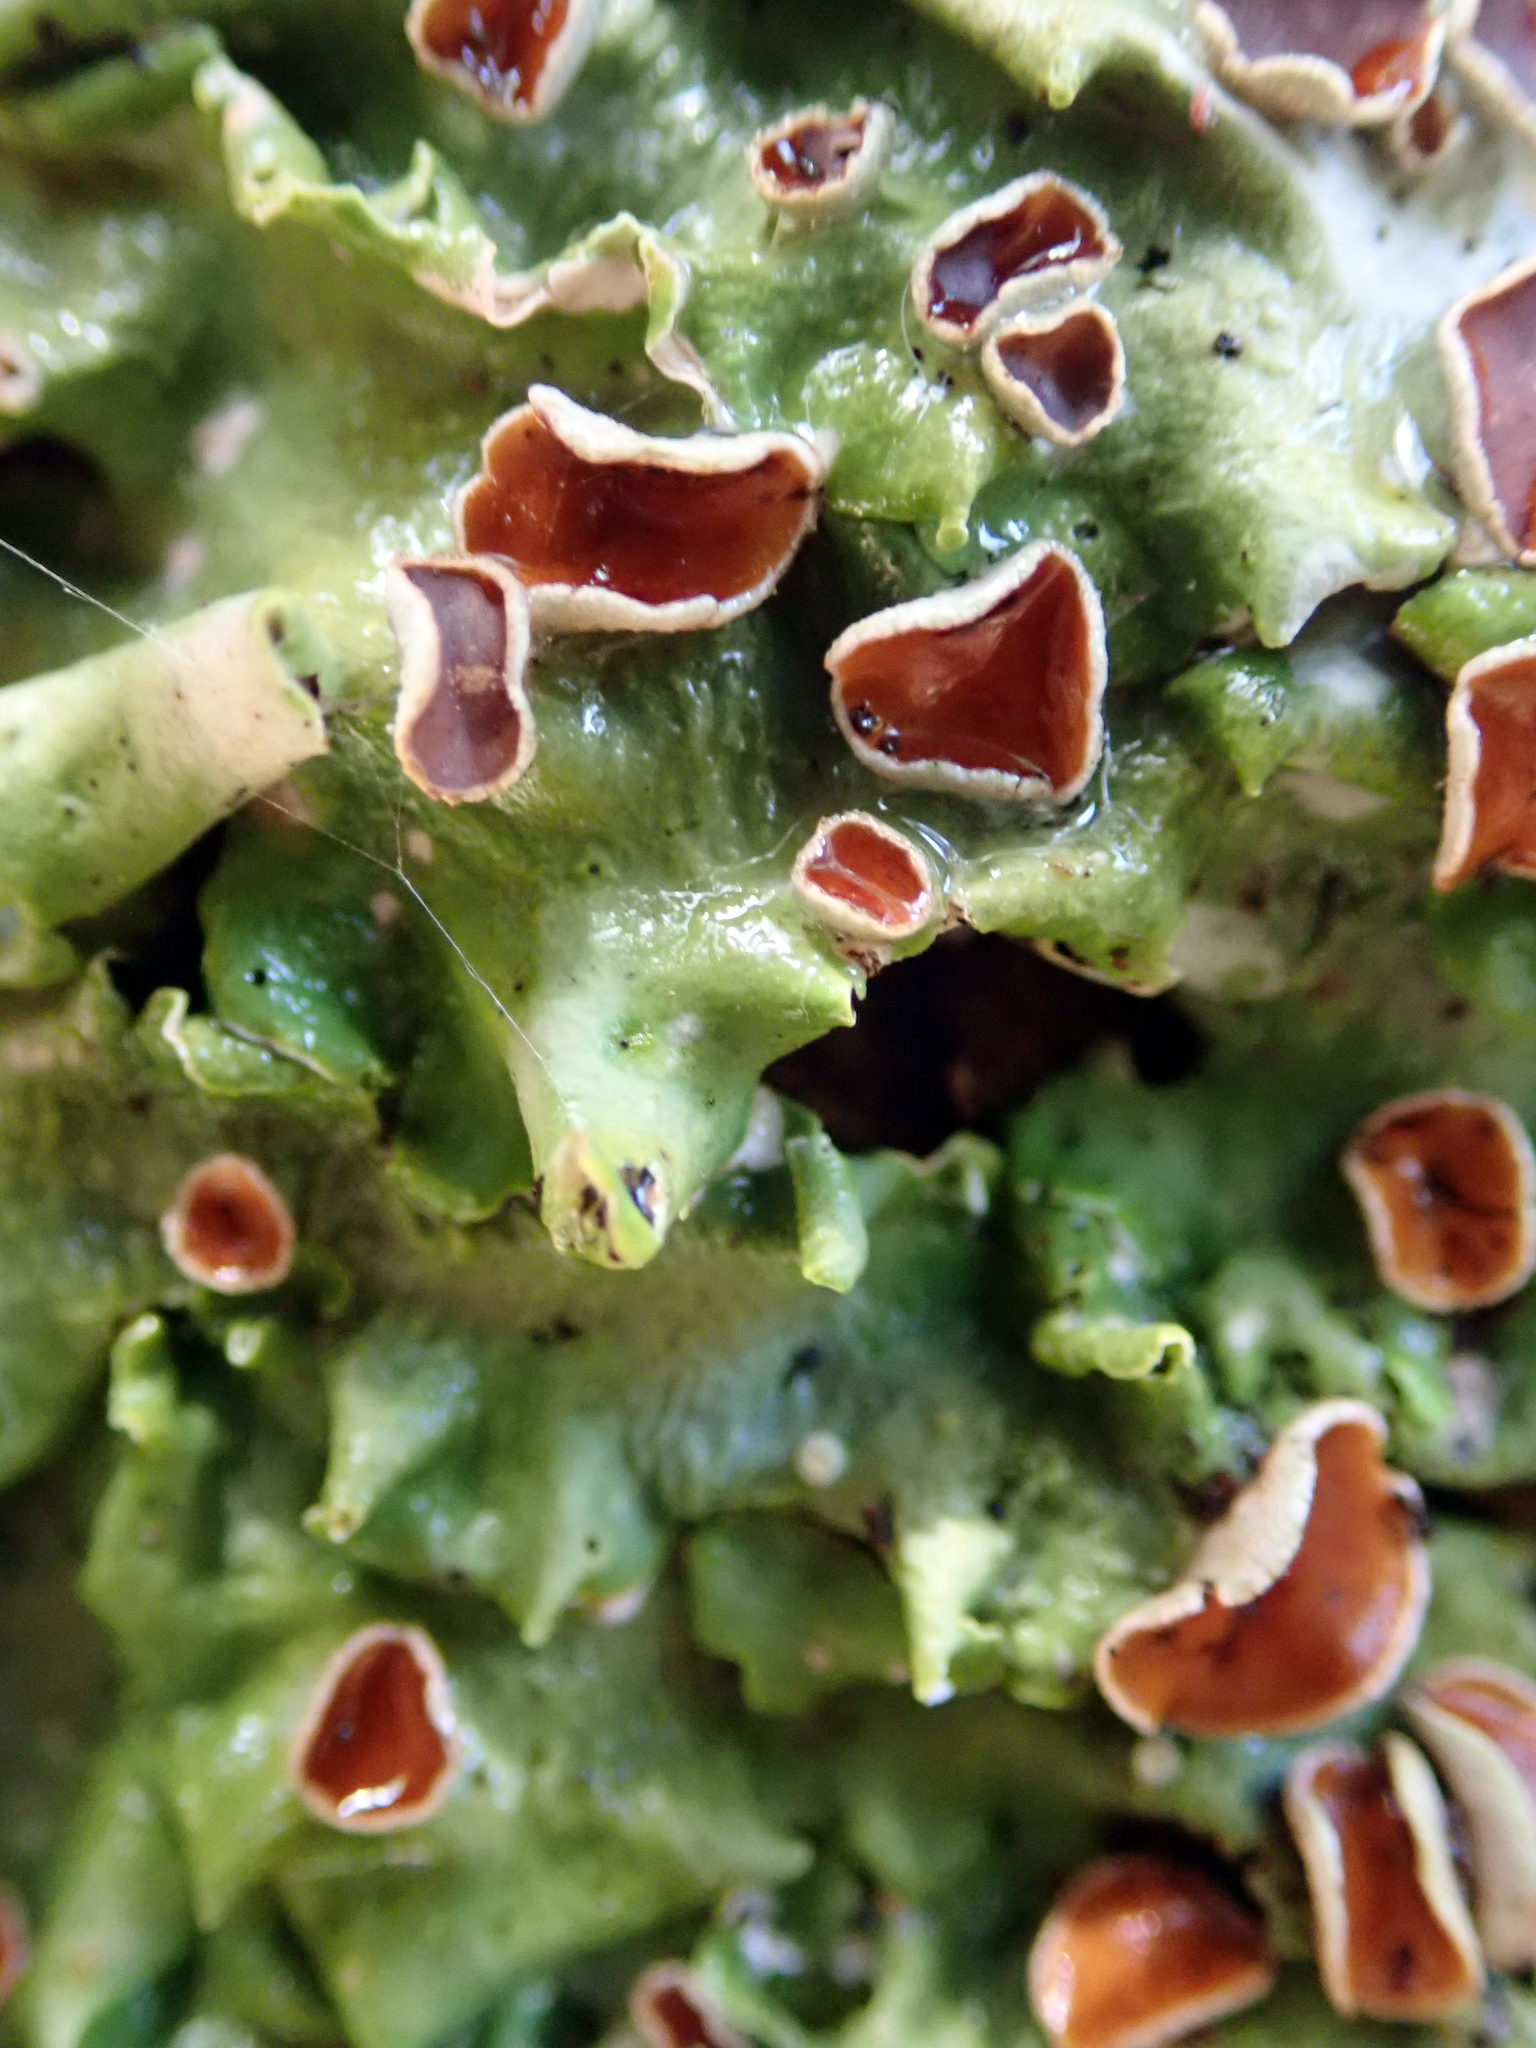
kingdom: Fungi
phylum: Ascomycota
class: Lecanoromycetes
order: Peltigerales
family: Lobariaceae
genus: Lobaria
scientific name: Lobaria adscripta
